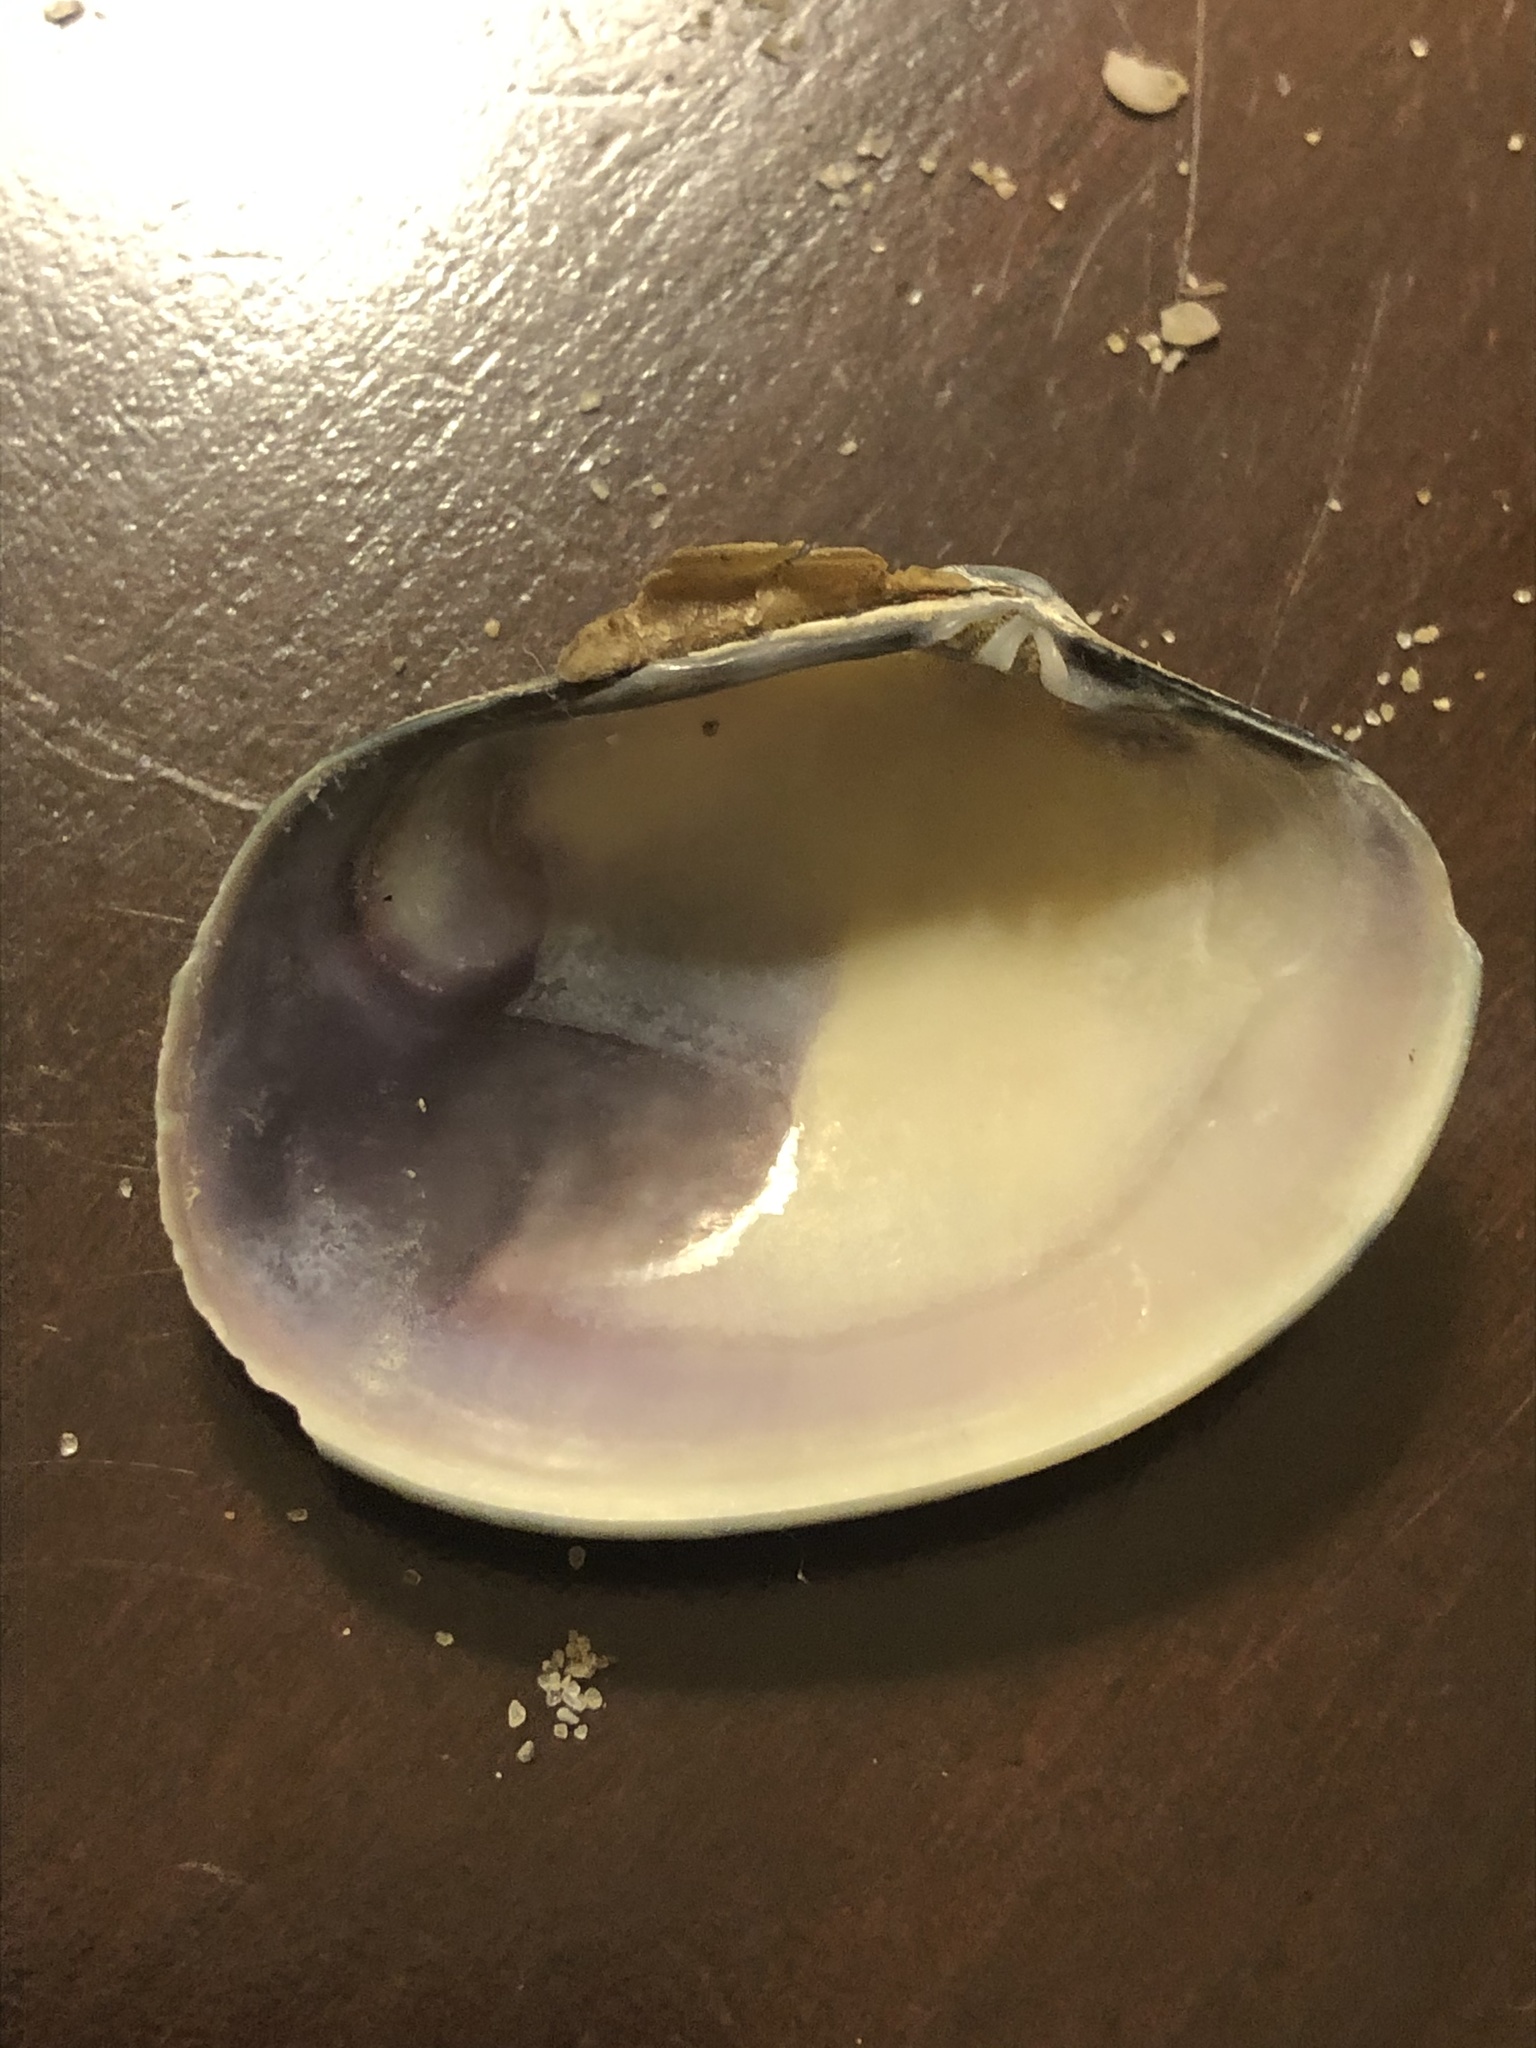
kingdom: Animalia
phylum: Mollusca
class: Bivalvia
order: Venerida
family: Veneridae
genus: Ruditapes
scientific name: Ruditapes philippinarum
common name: Manila clam
